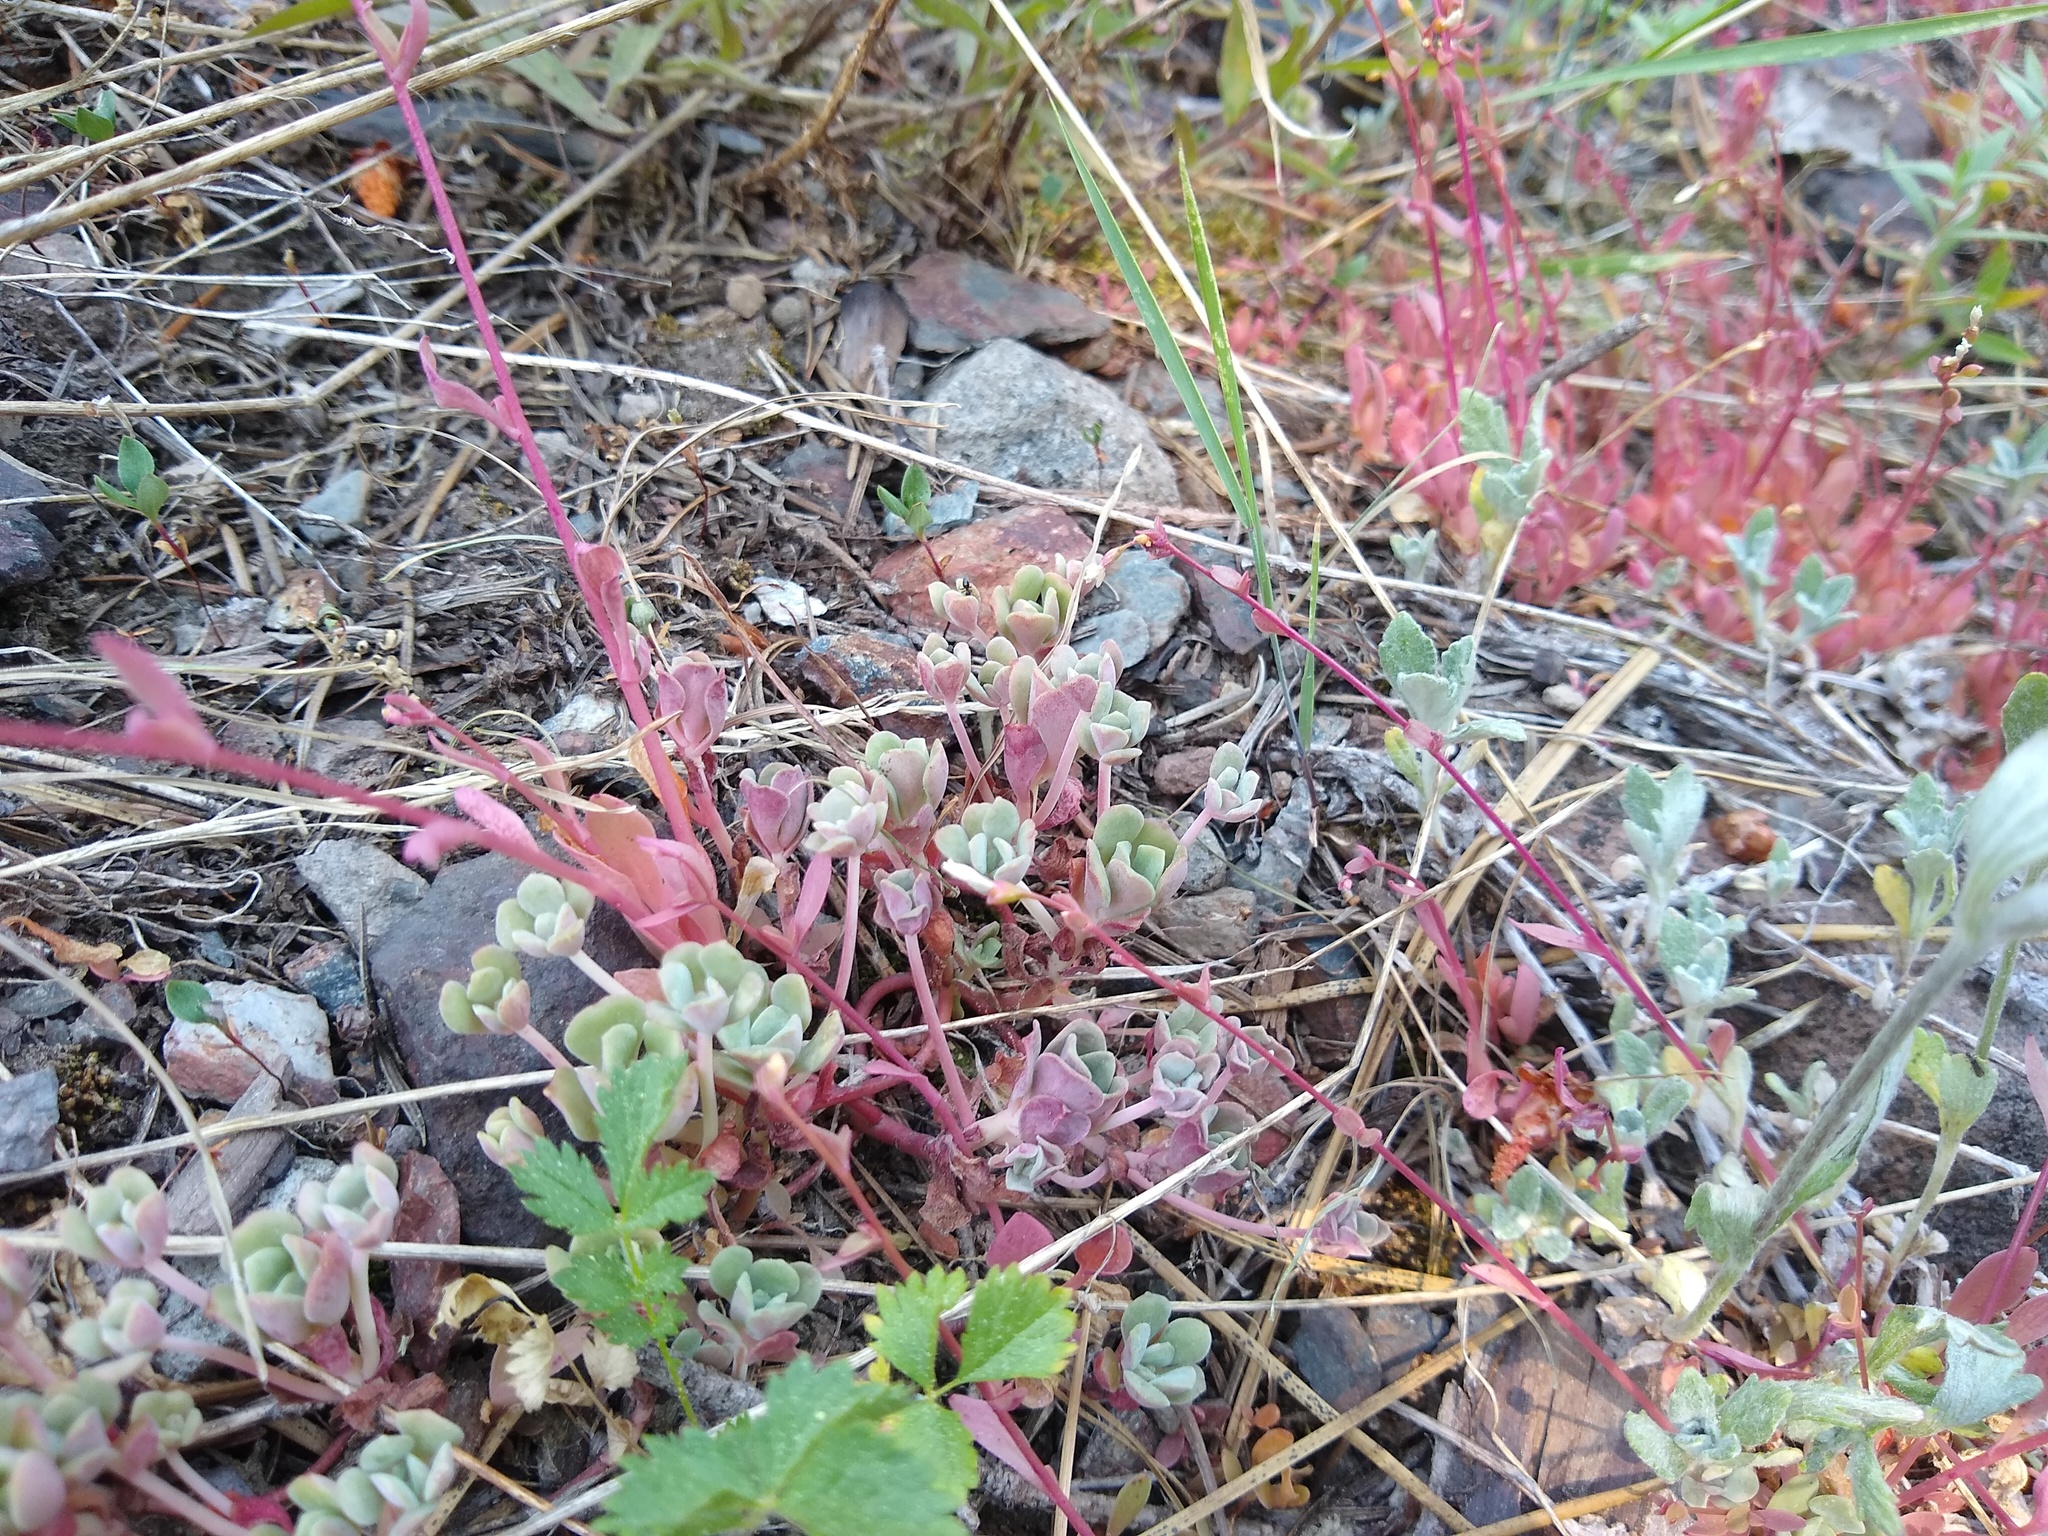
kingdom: Plantae
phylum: Tracheophyta
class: Magnoliopsida
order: Saxifragales
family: Crassulaceae
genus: Sedum
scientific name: Sedum spathulifolium
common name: Colorado stonecrop
